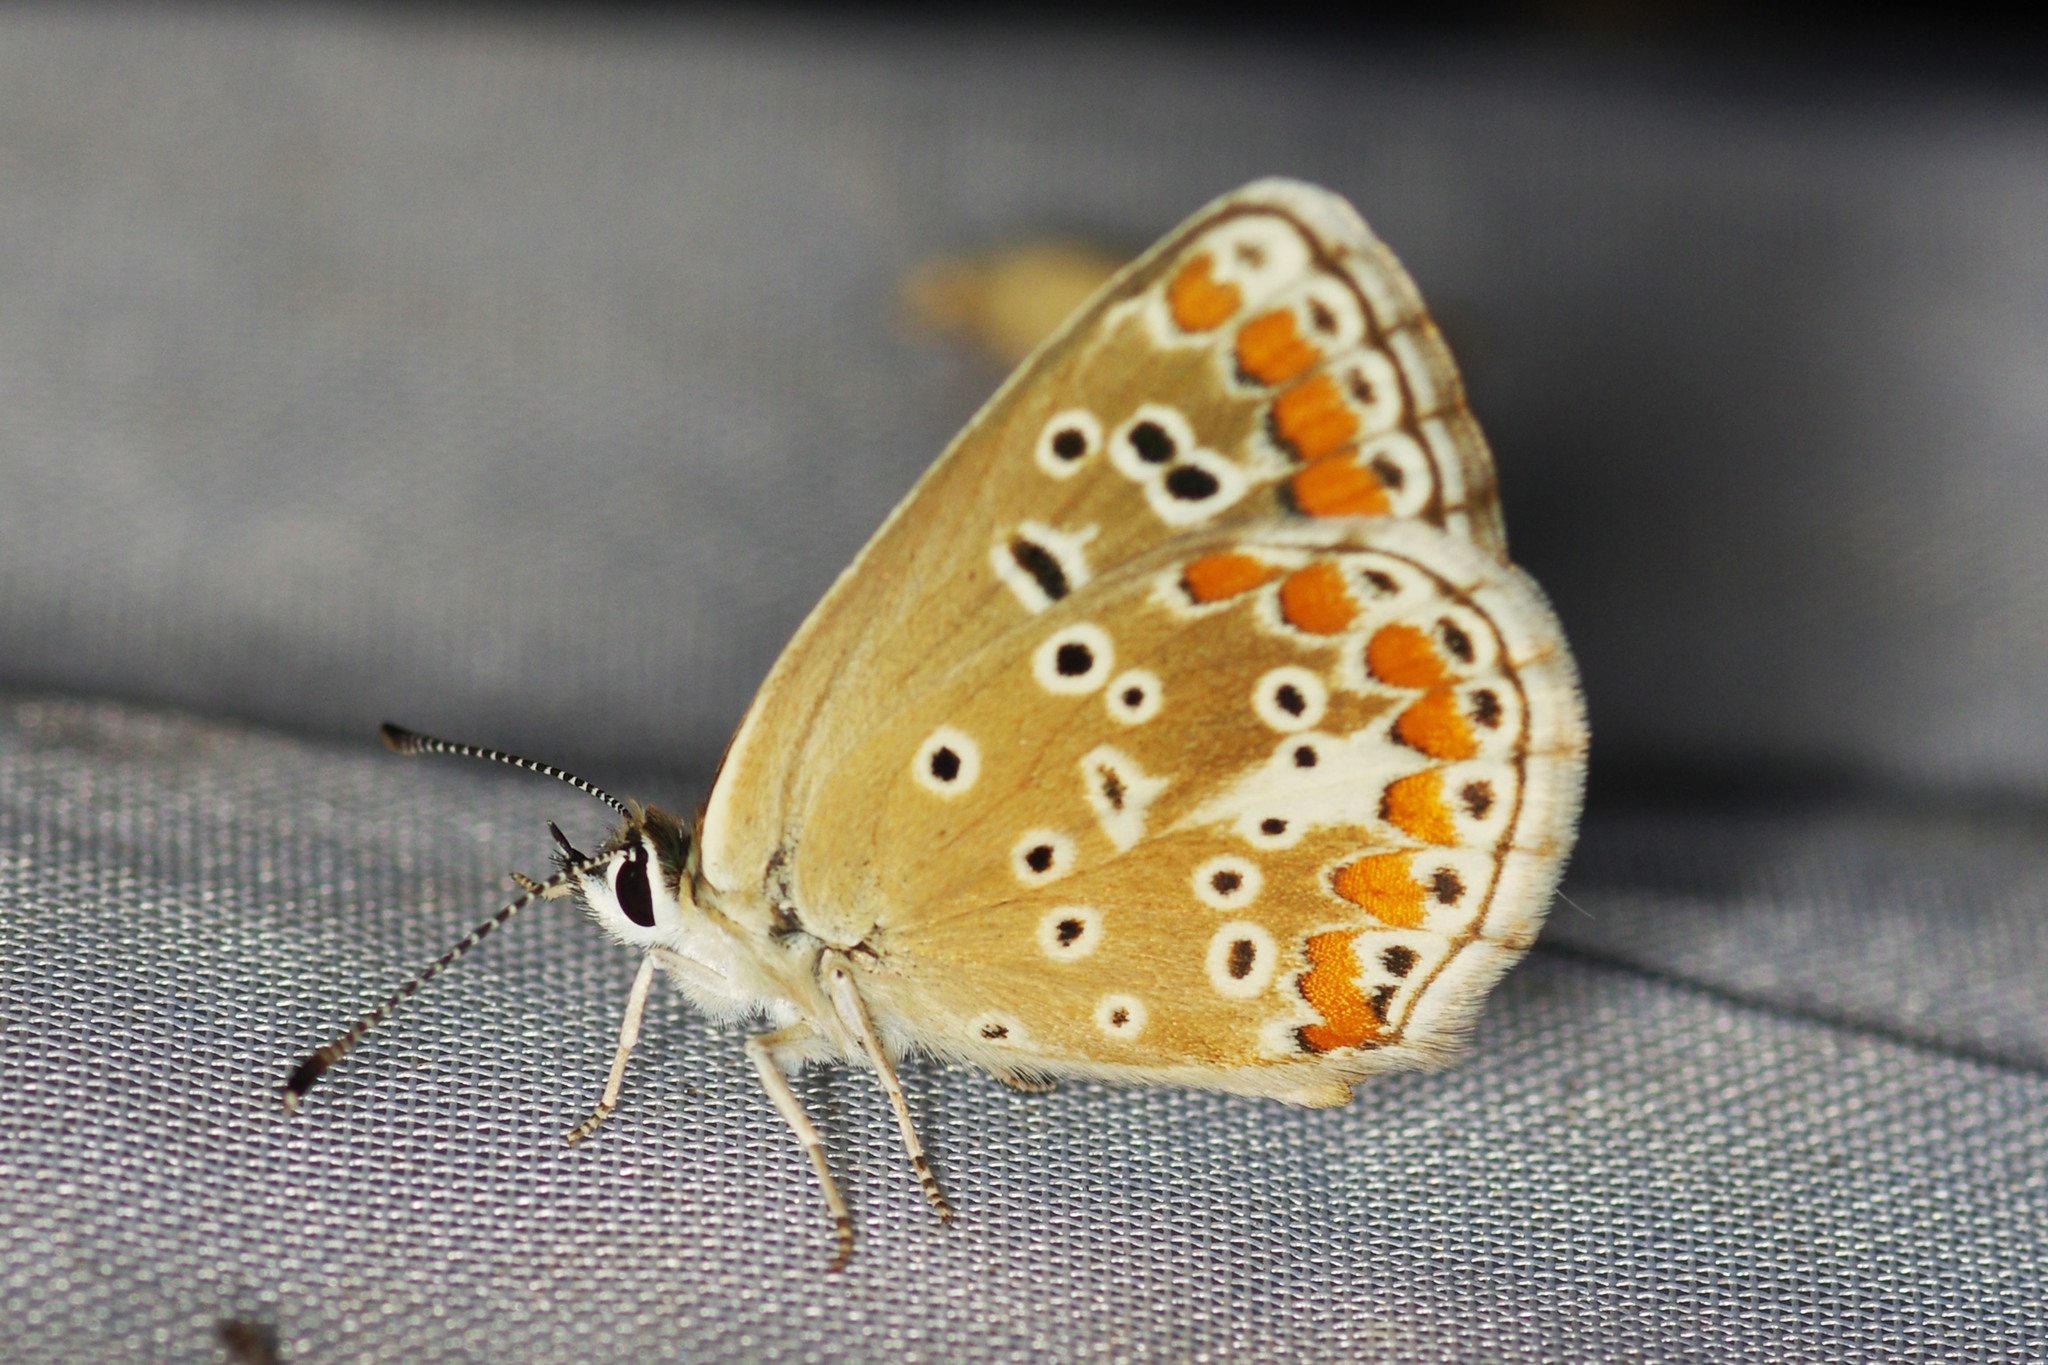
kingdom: Animalia
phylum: Arthropoda
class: Insecta
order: Lepidoptera
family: Lycaenidae
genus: Aricia
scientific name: Aricia agestis
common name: Brown argus
